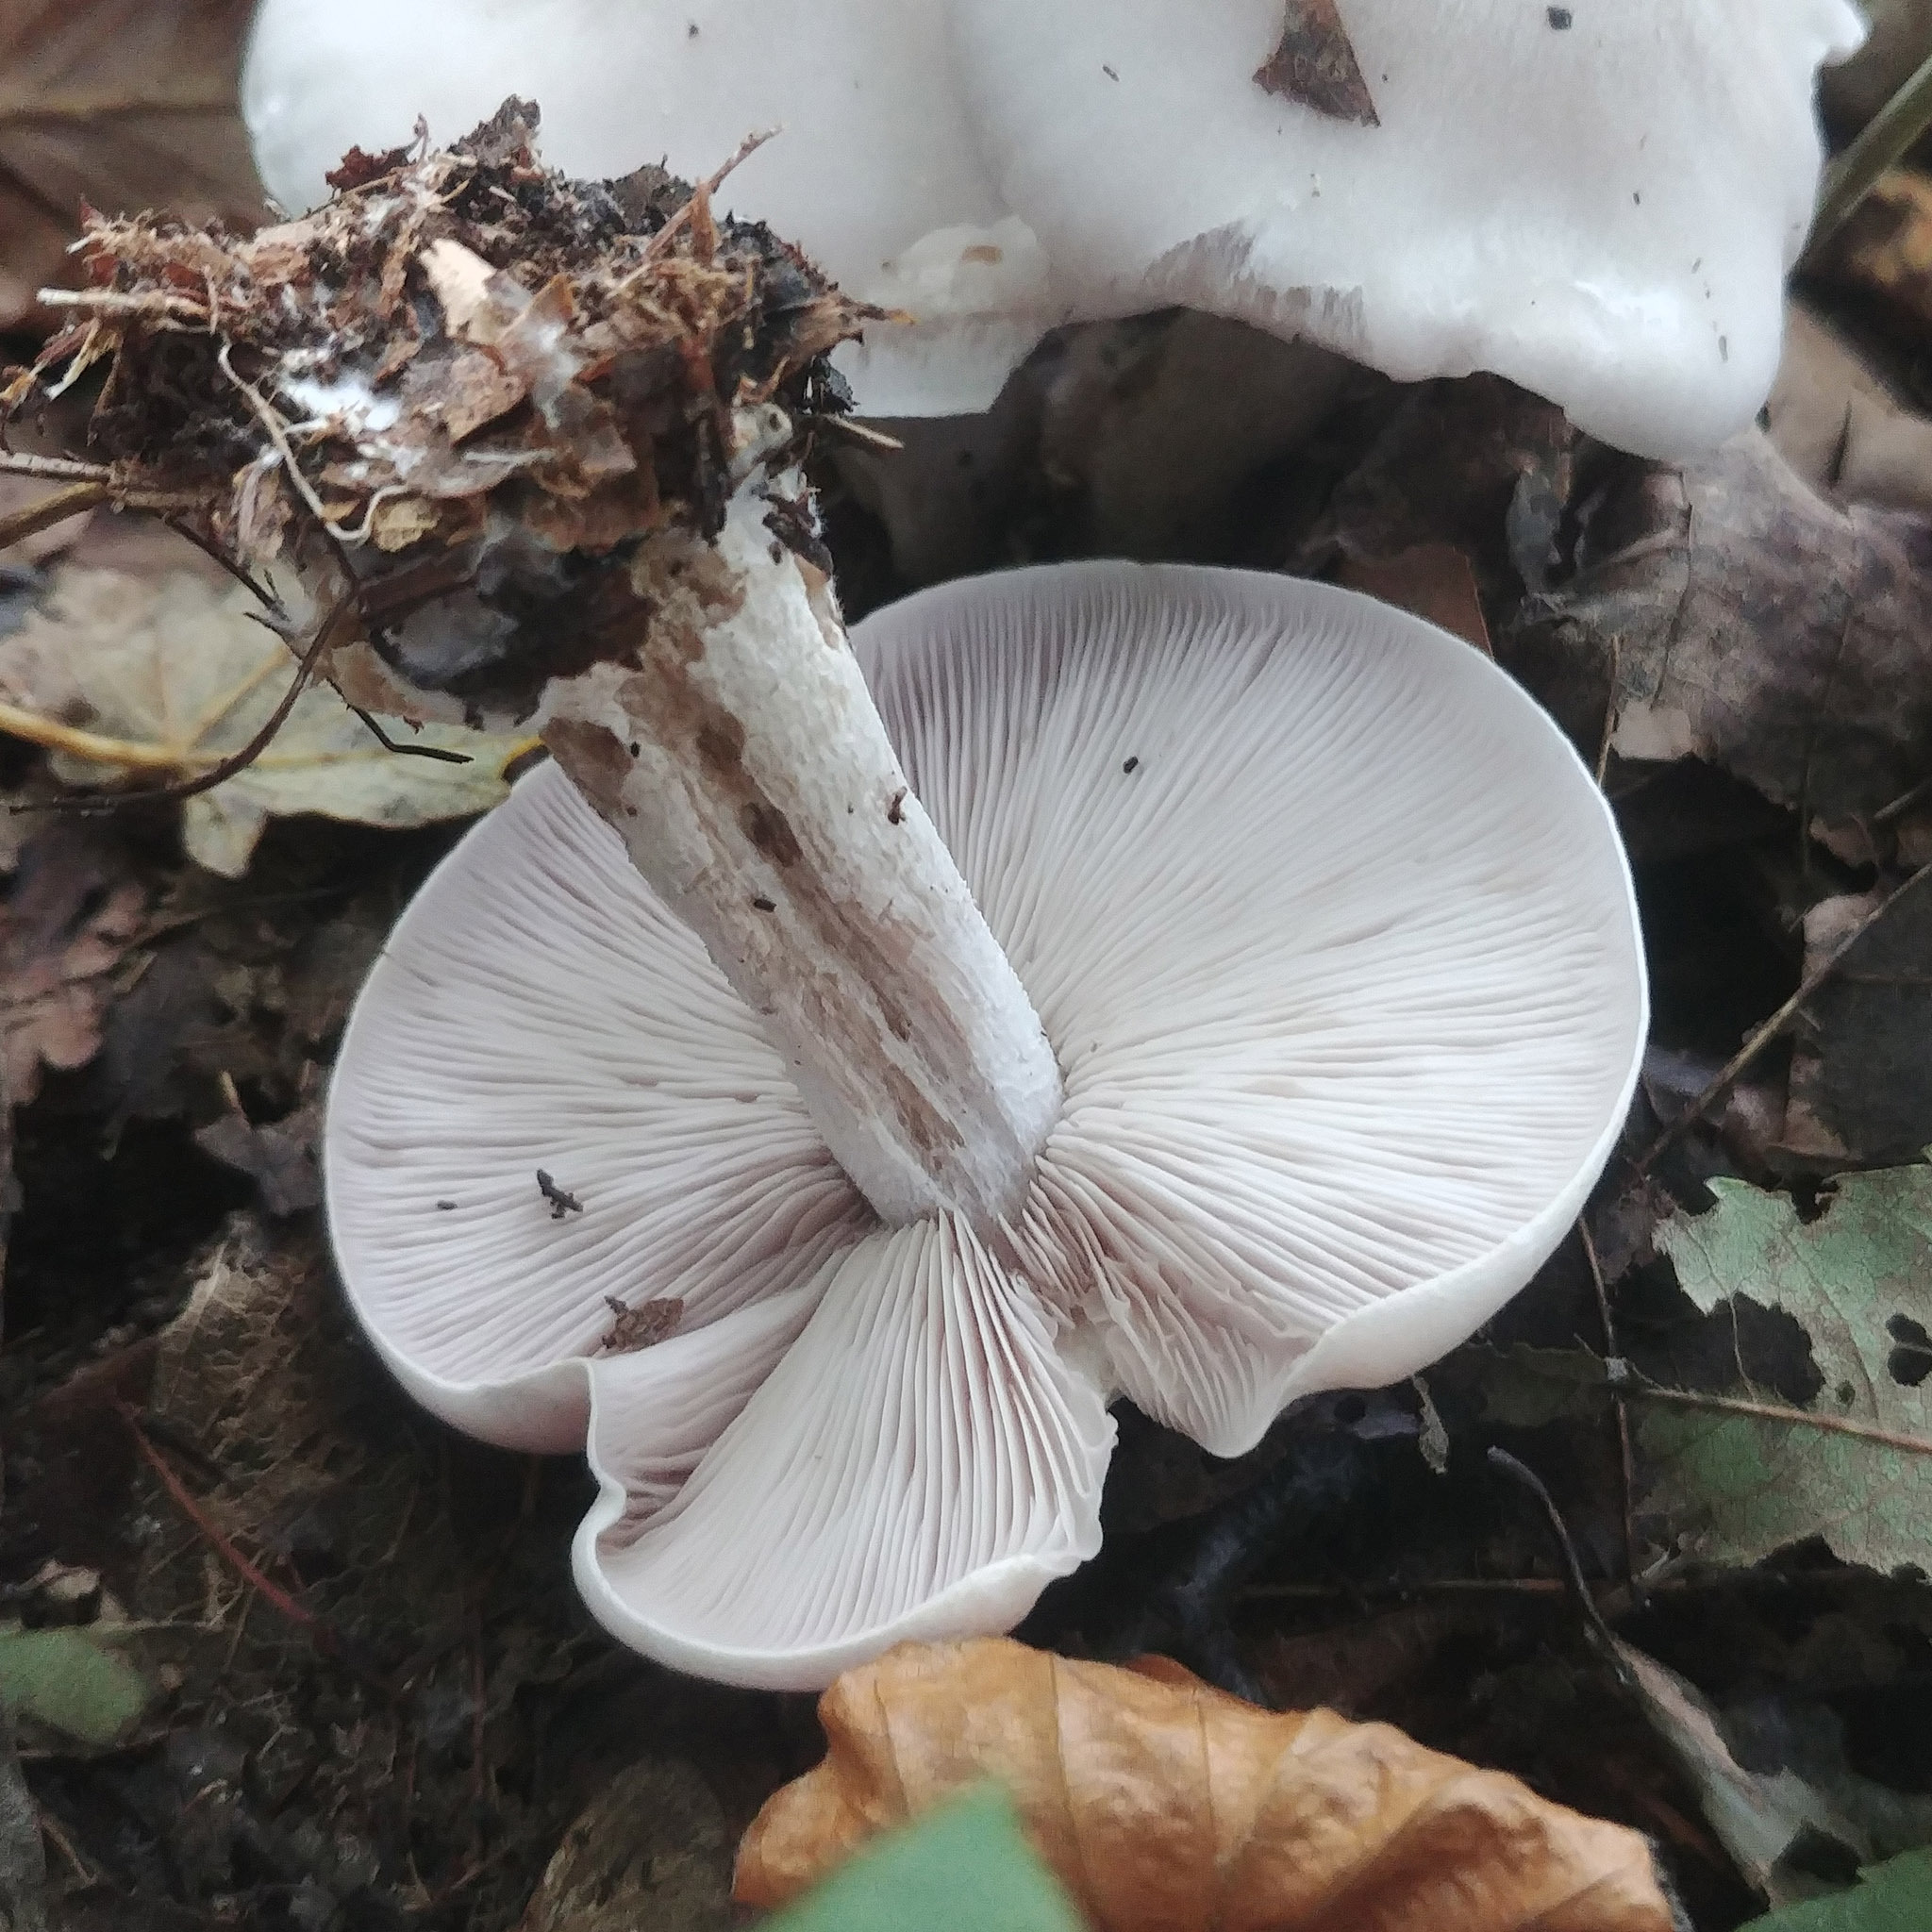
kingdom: Fungi
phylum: Basidiomycota
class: Agaricomycetes
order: Agaricales
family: Tricholomataceae
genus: Lepista
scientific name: Lepista glaucocana
